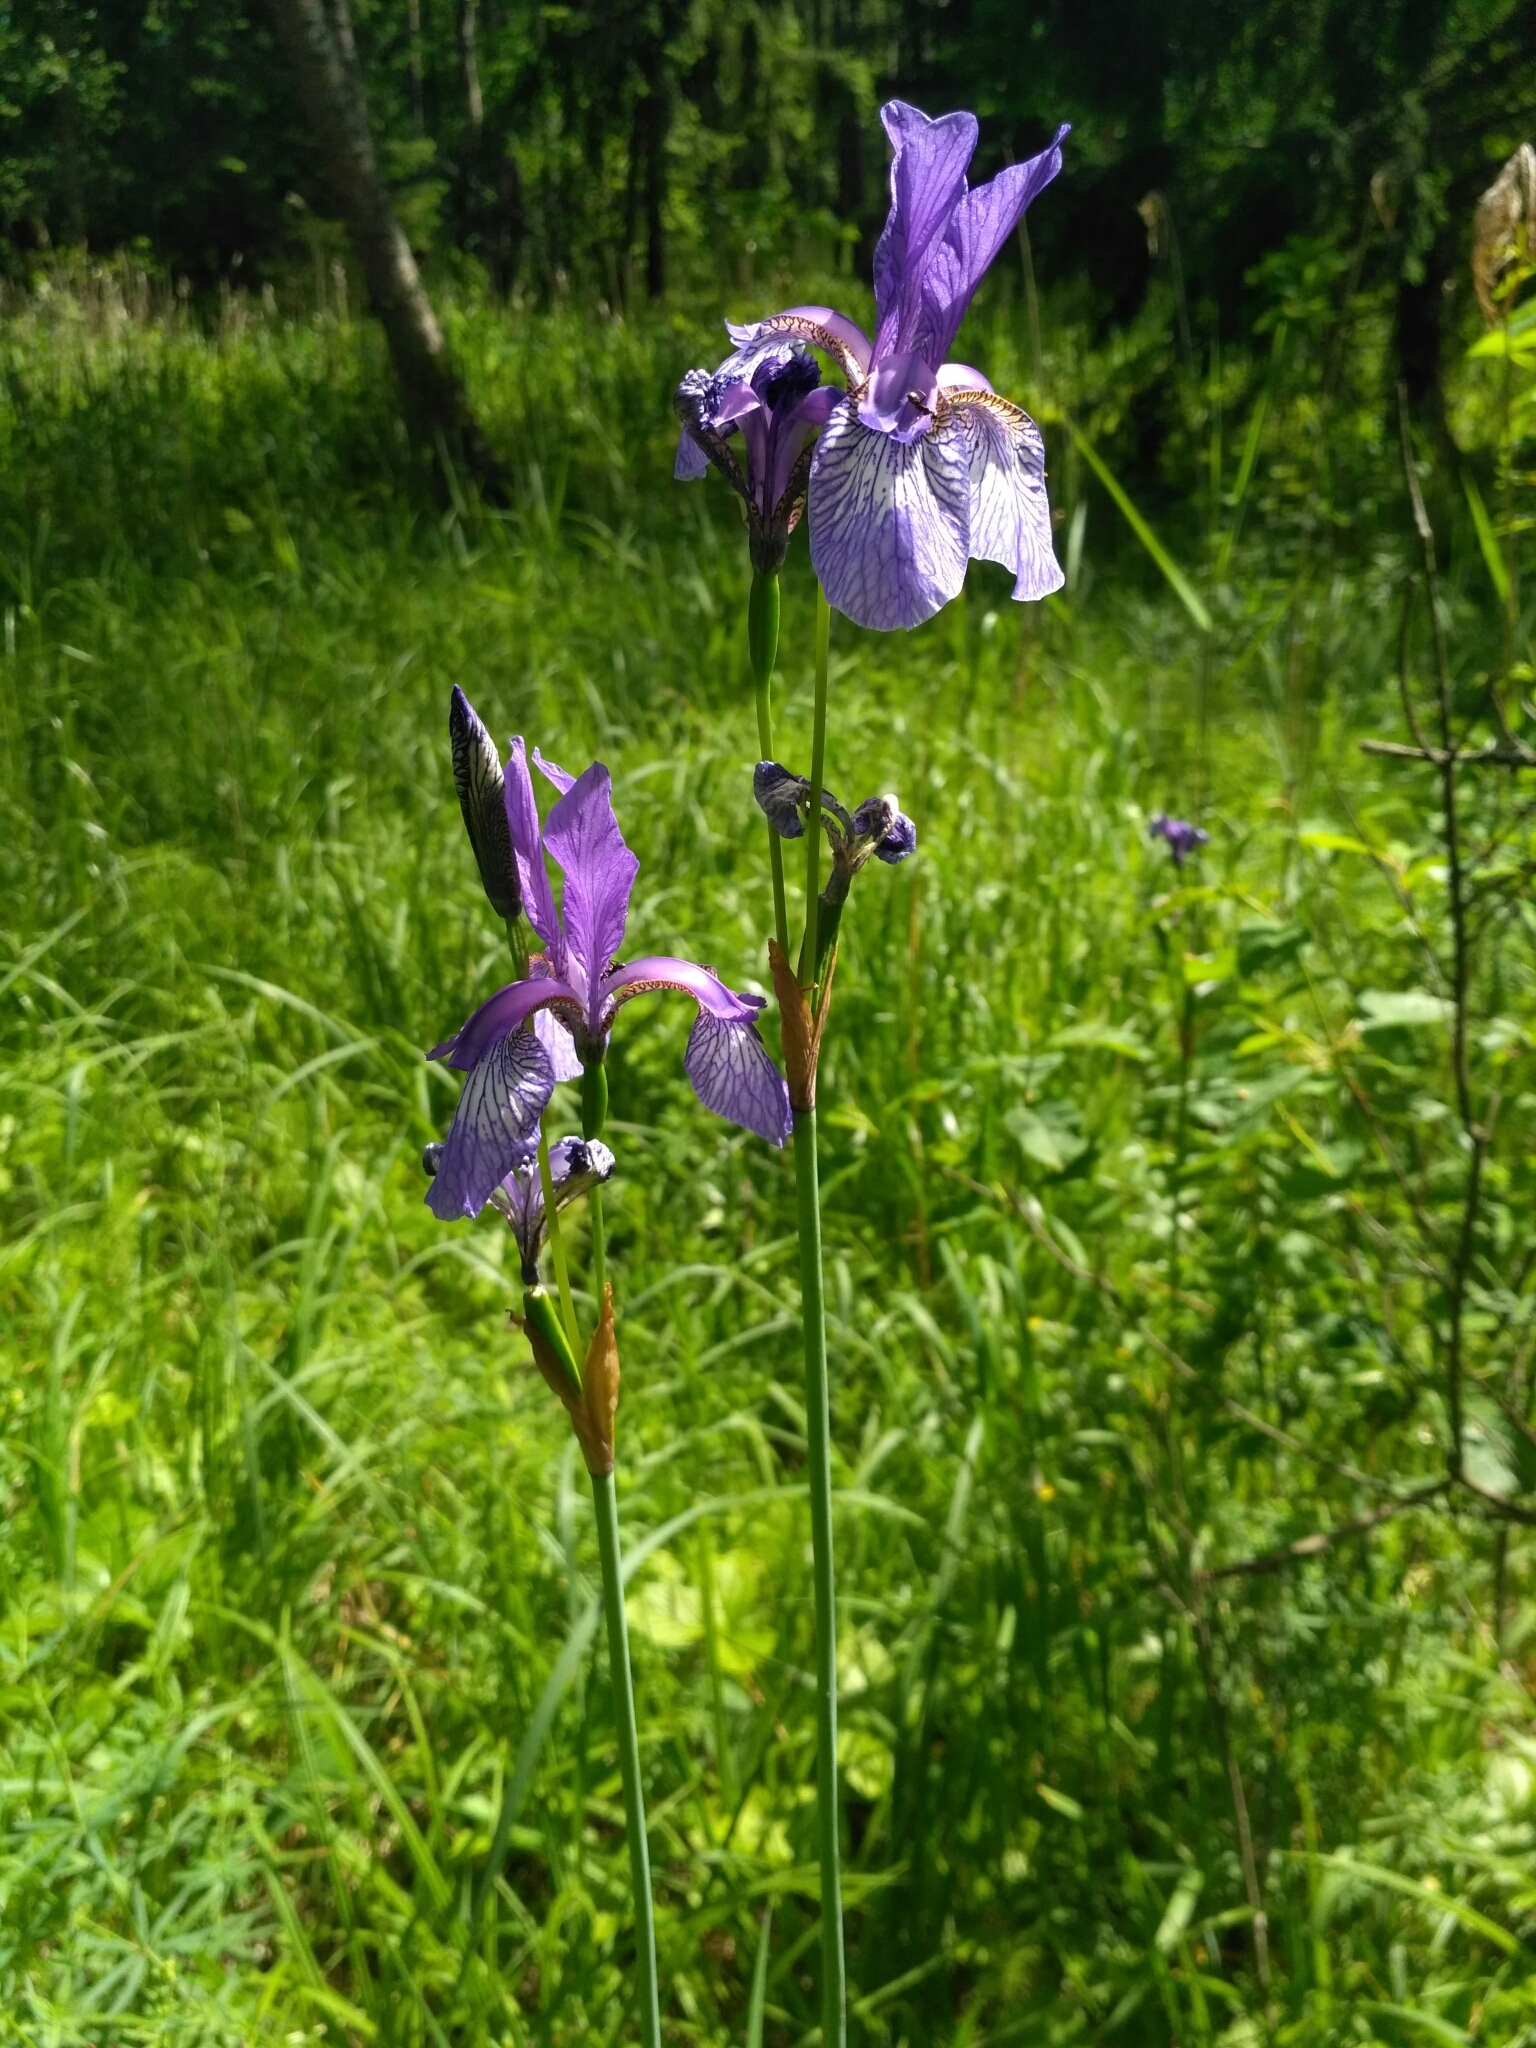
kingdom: Plantae
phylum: Tracheophyta
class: Liliopsida
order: Asparagales
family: Iridaceae
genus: Iris
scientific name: Iris sibirica
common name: Siberian iris
